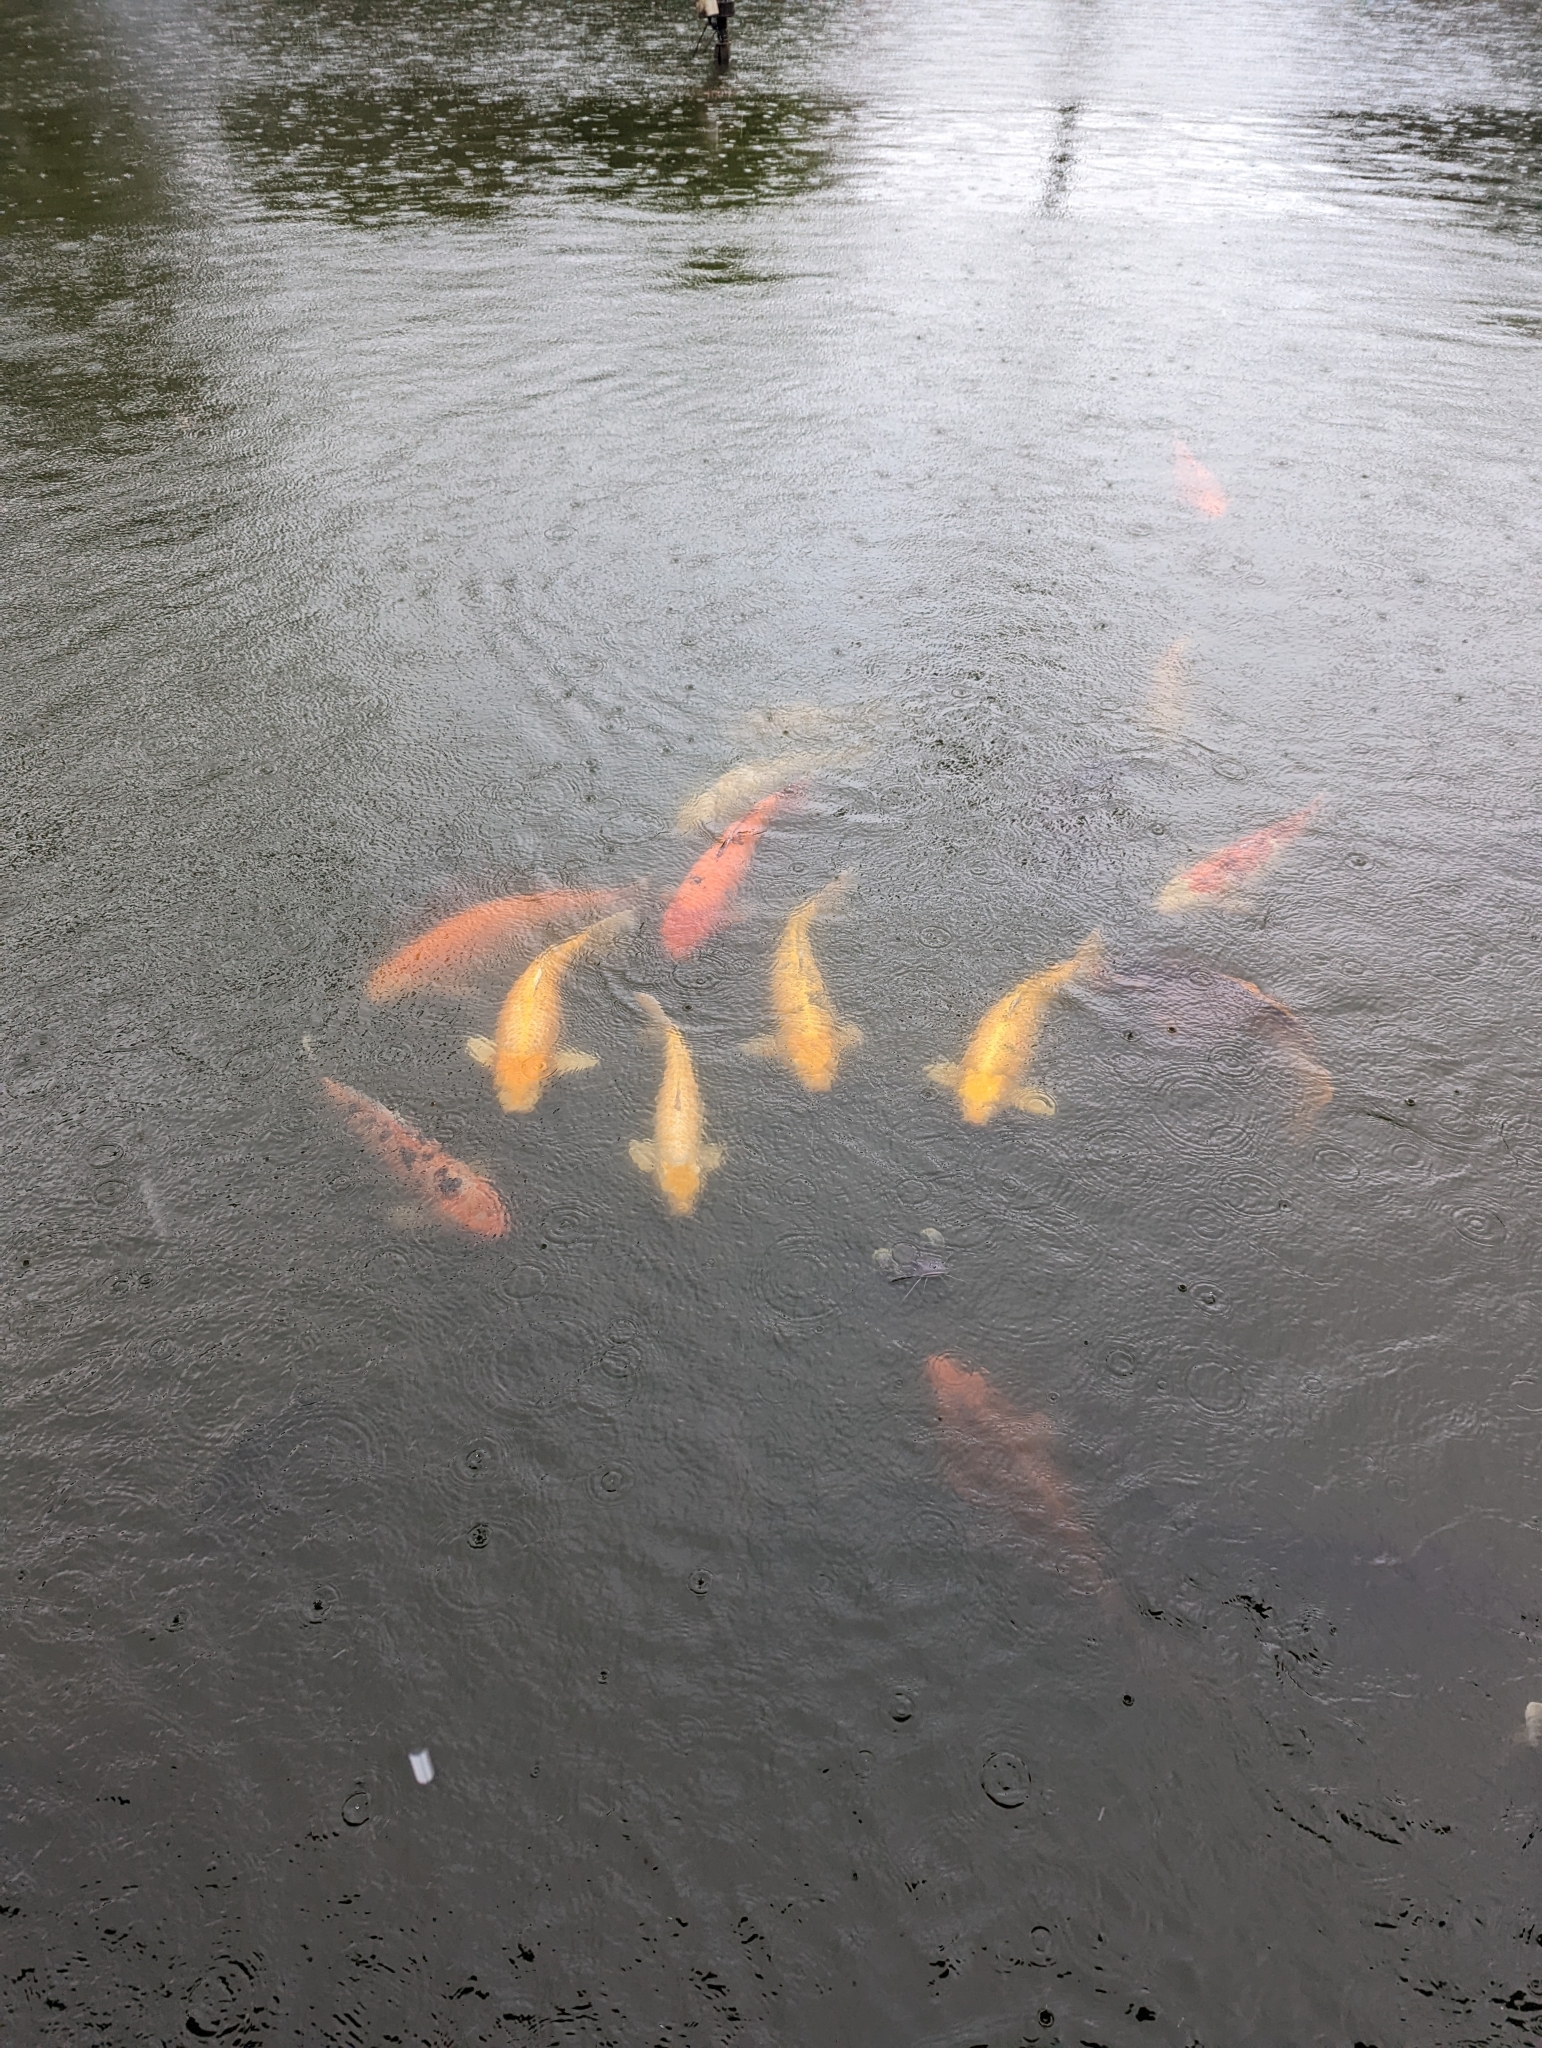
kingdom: Animalia
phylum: Chordata
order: Cypriniformes
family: Cyprinidae
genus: Cyprinus
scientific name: Cyprinus rubrofuscus
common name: Koi
